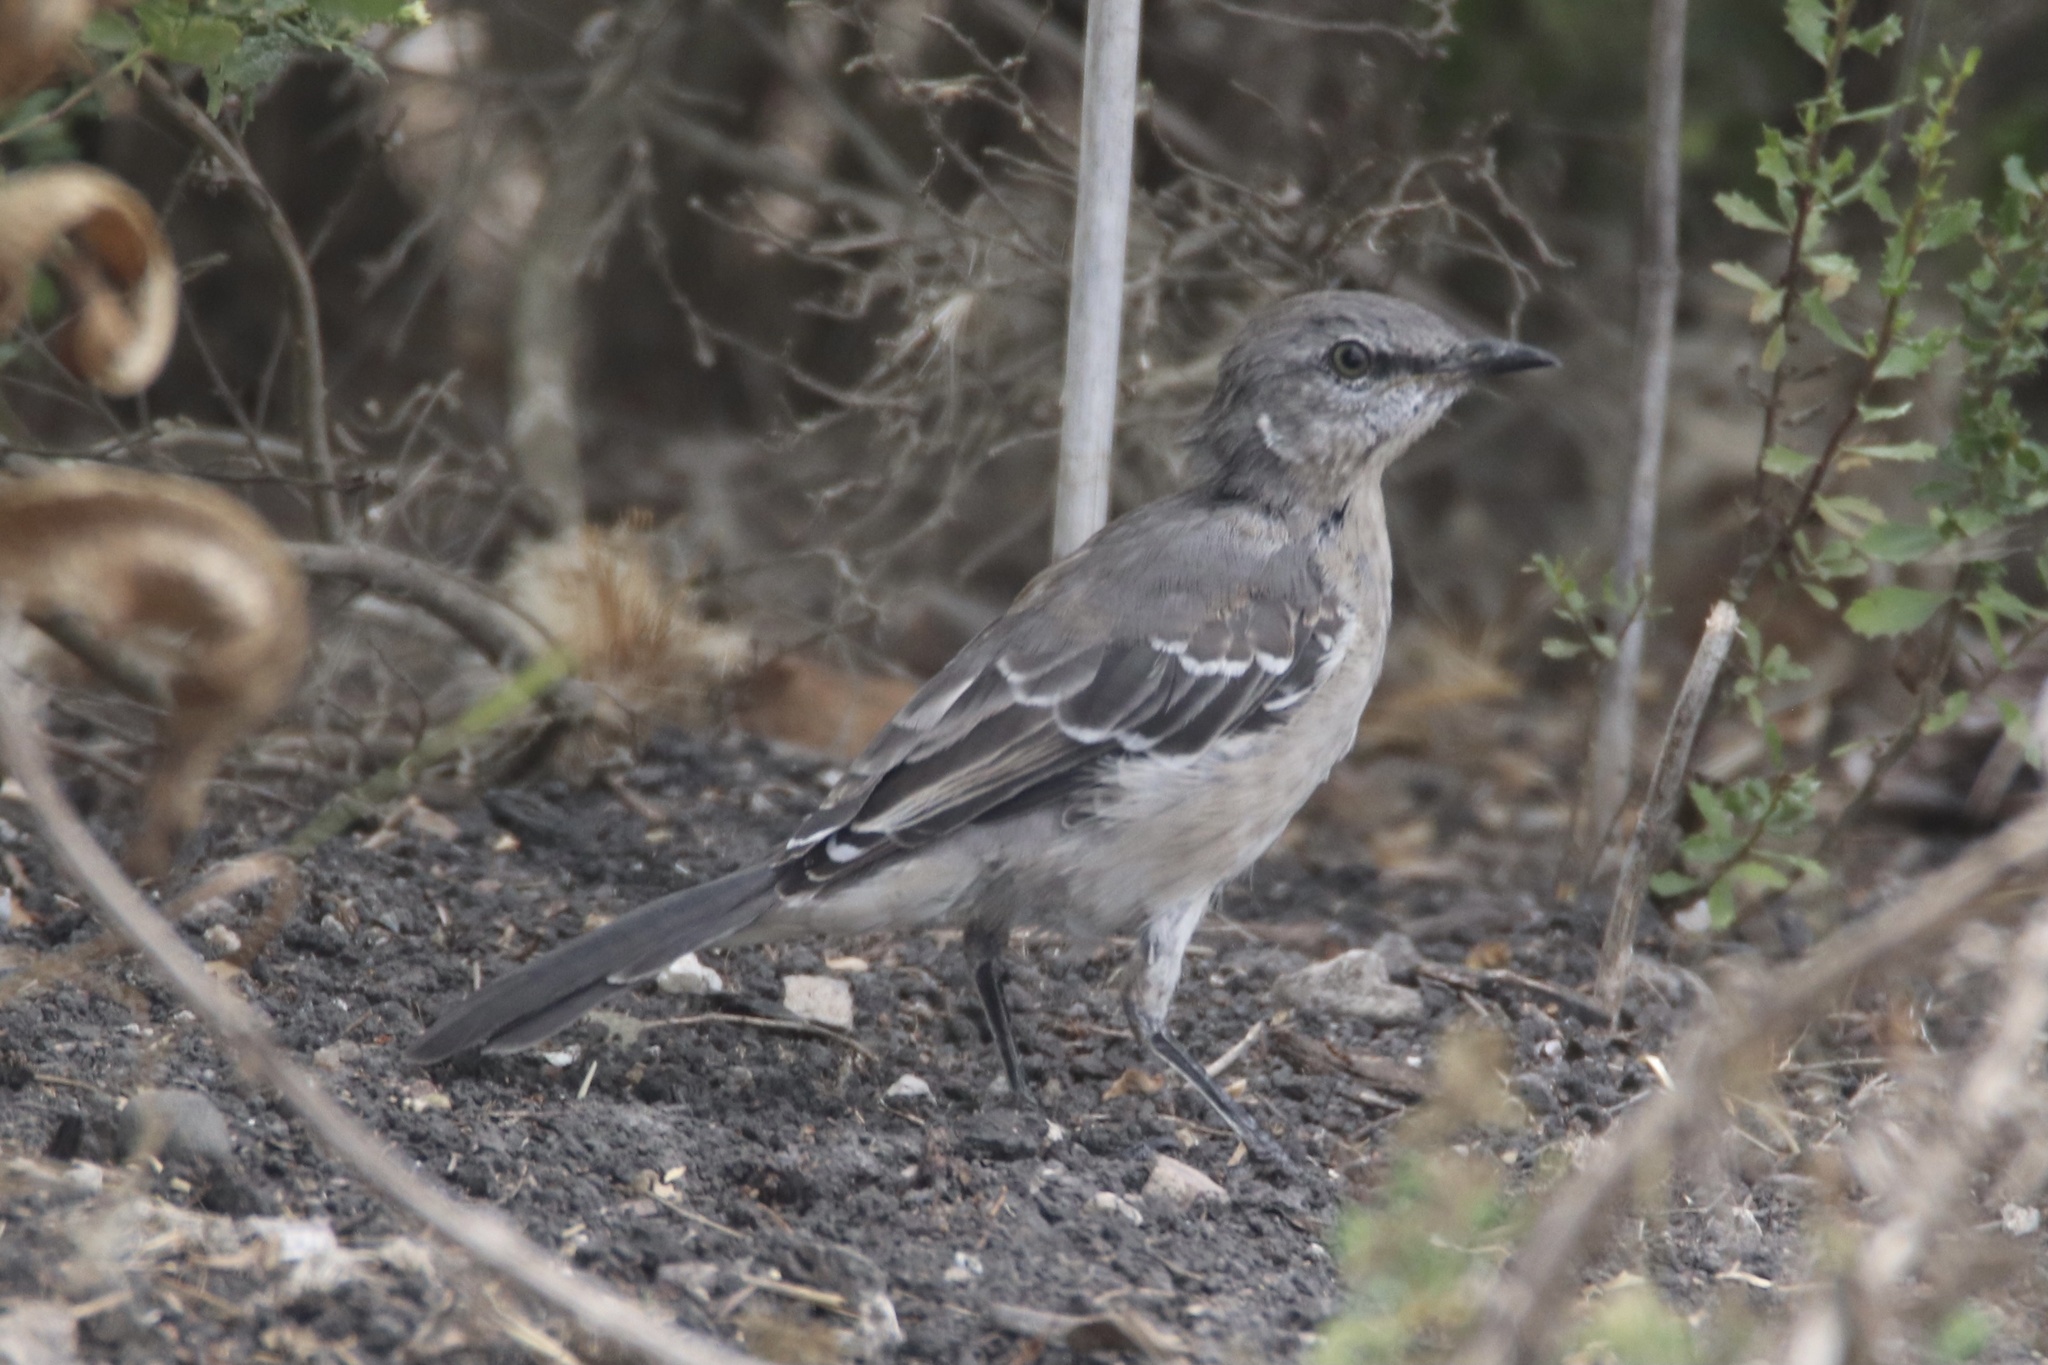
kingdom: Animalia
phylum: Chordata
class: Aves
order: Passeriformes
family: Mimidae
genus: Mimus
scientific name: Mimus polyglottos
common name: Northern mockingbird
